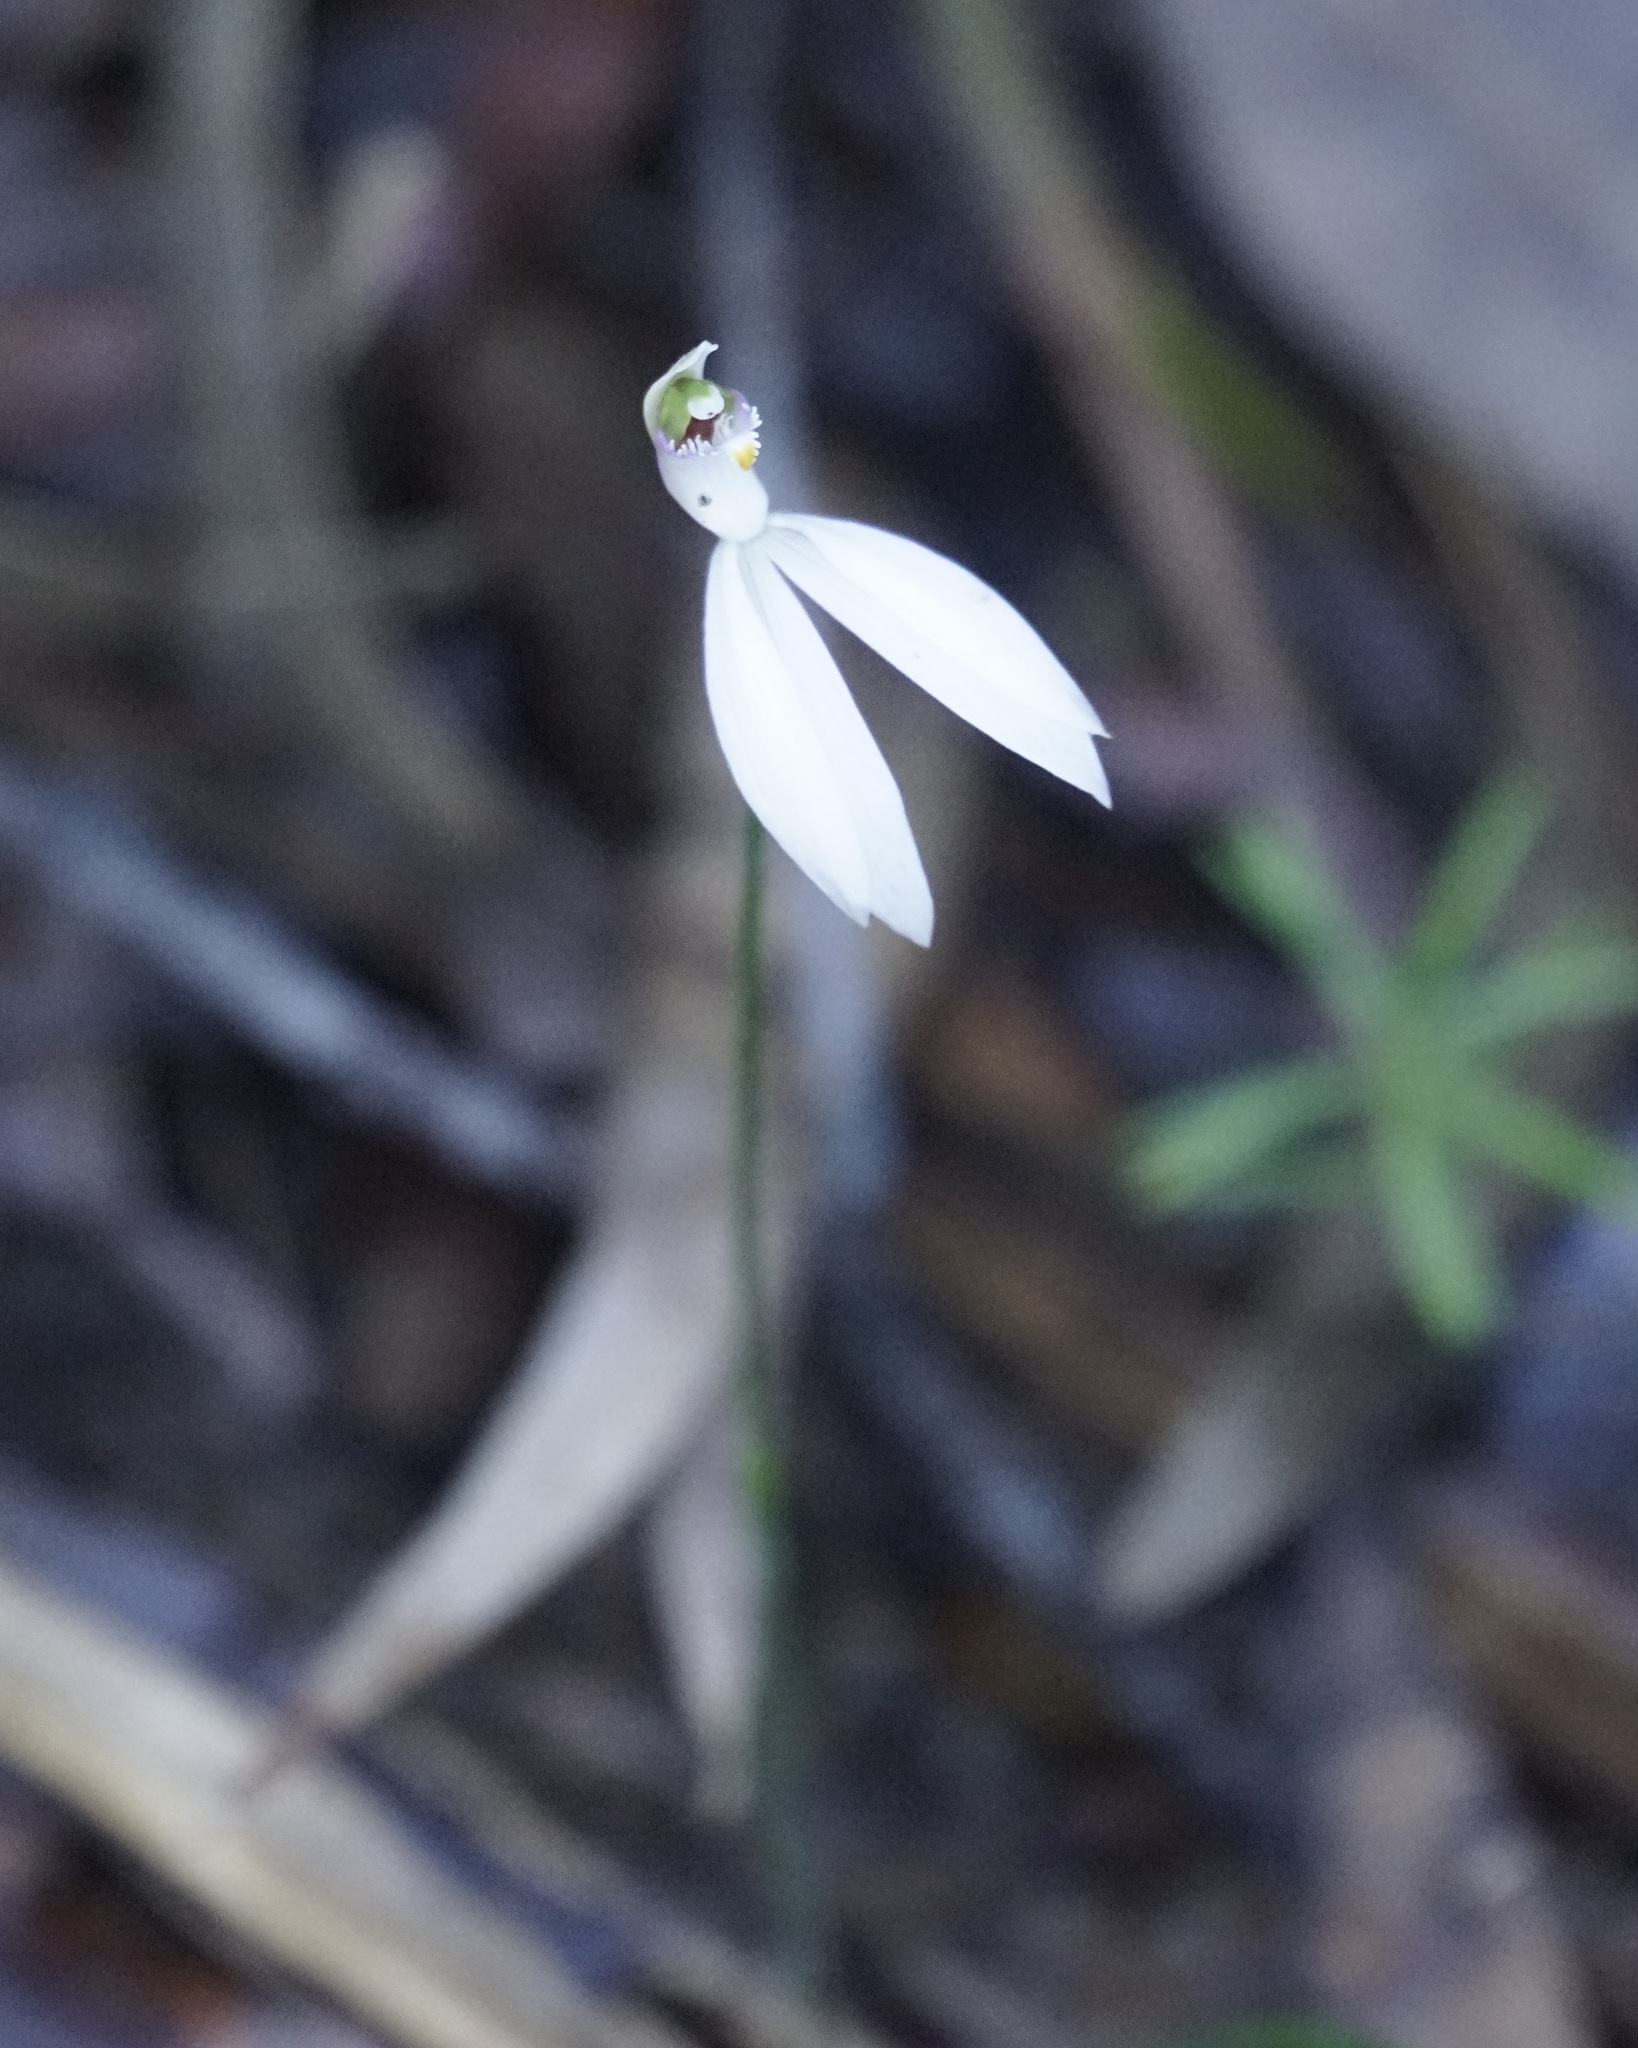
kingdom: Plantae
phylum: Tracheophyta
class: Liliopsida
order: Asparagales
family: Orchidaceae
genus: Caladenia
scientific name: Caladenia picta
